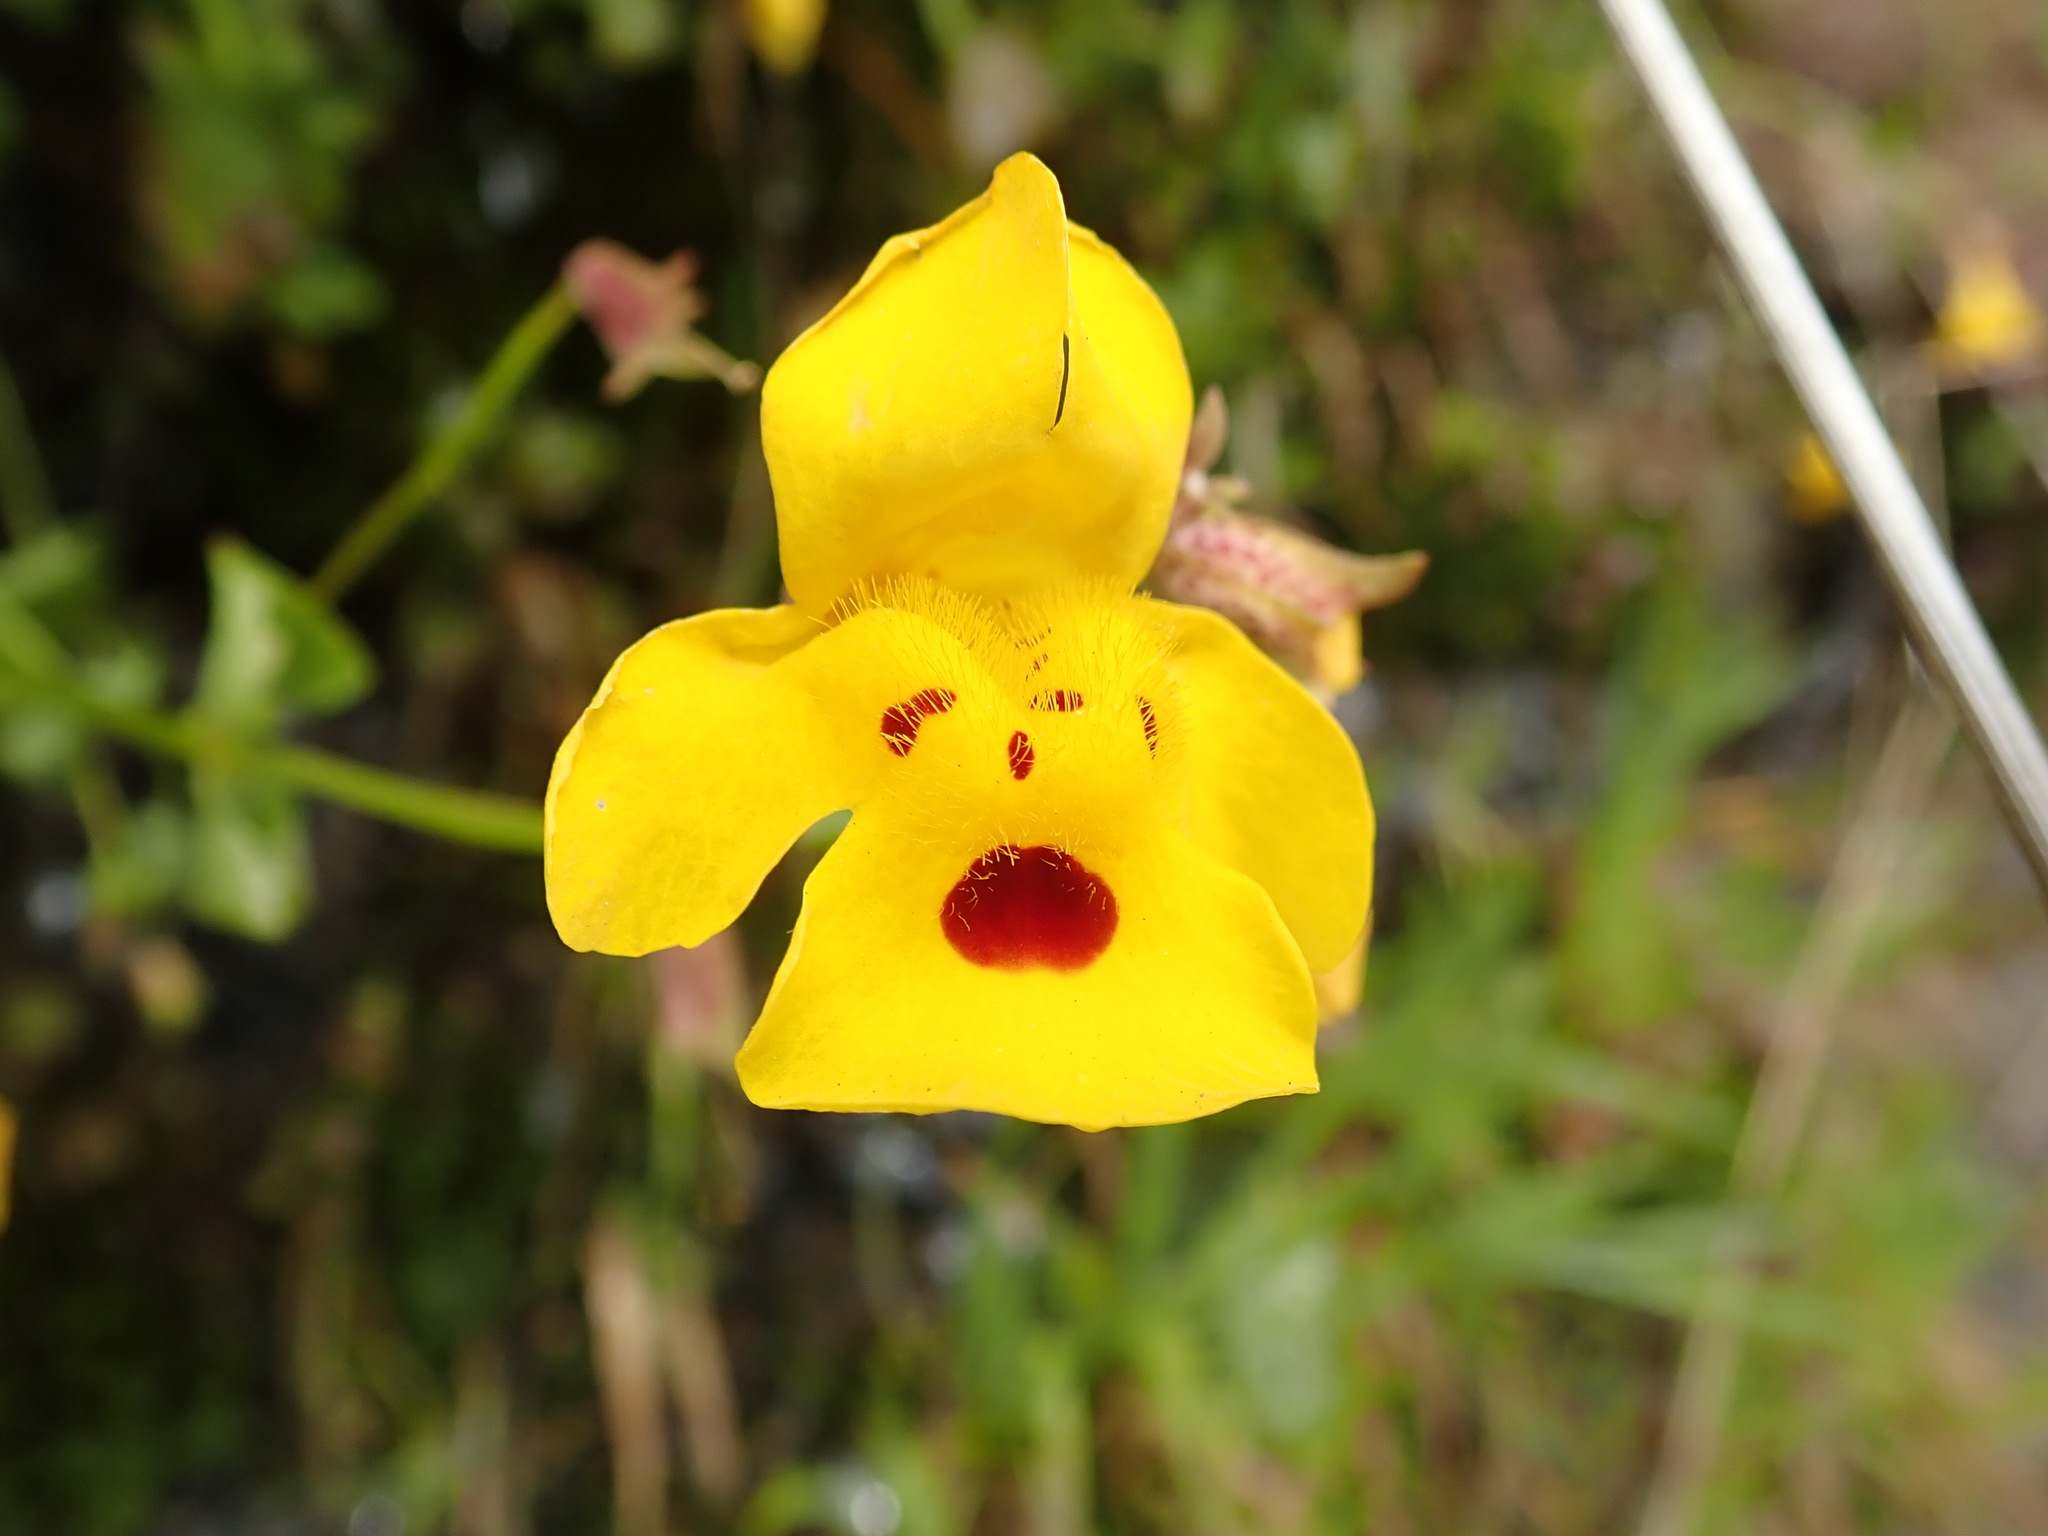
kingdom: Plantae
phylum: Tracheophyta
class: Magnoliopsida
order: Lamiales
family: Phrymaceae
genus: Erythranthe
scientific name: Erythranthe guttata
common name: Monkeyflower
